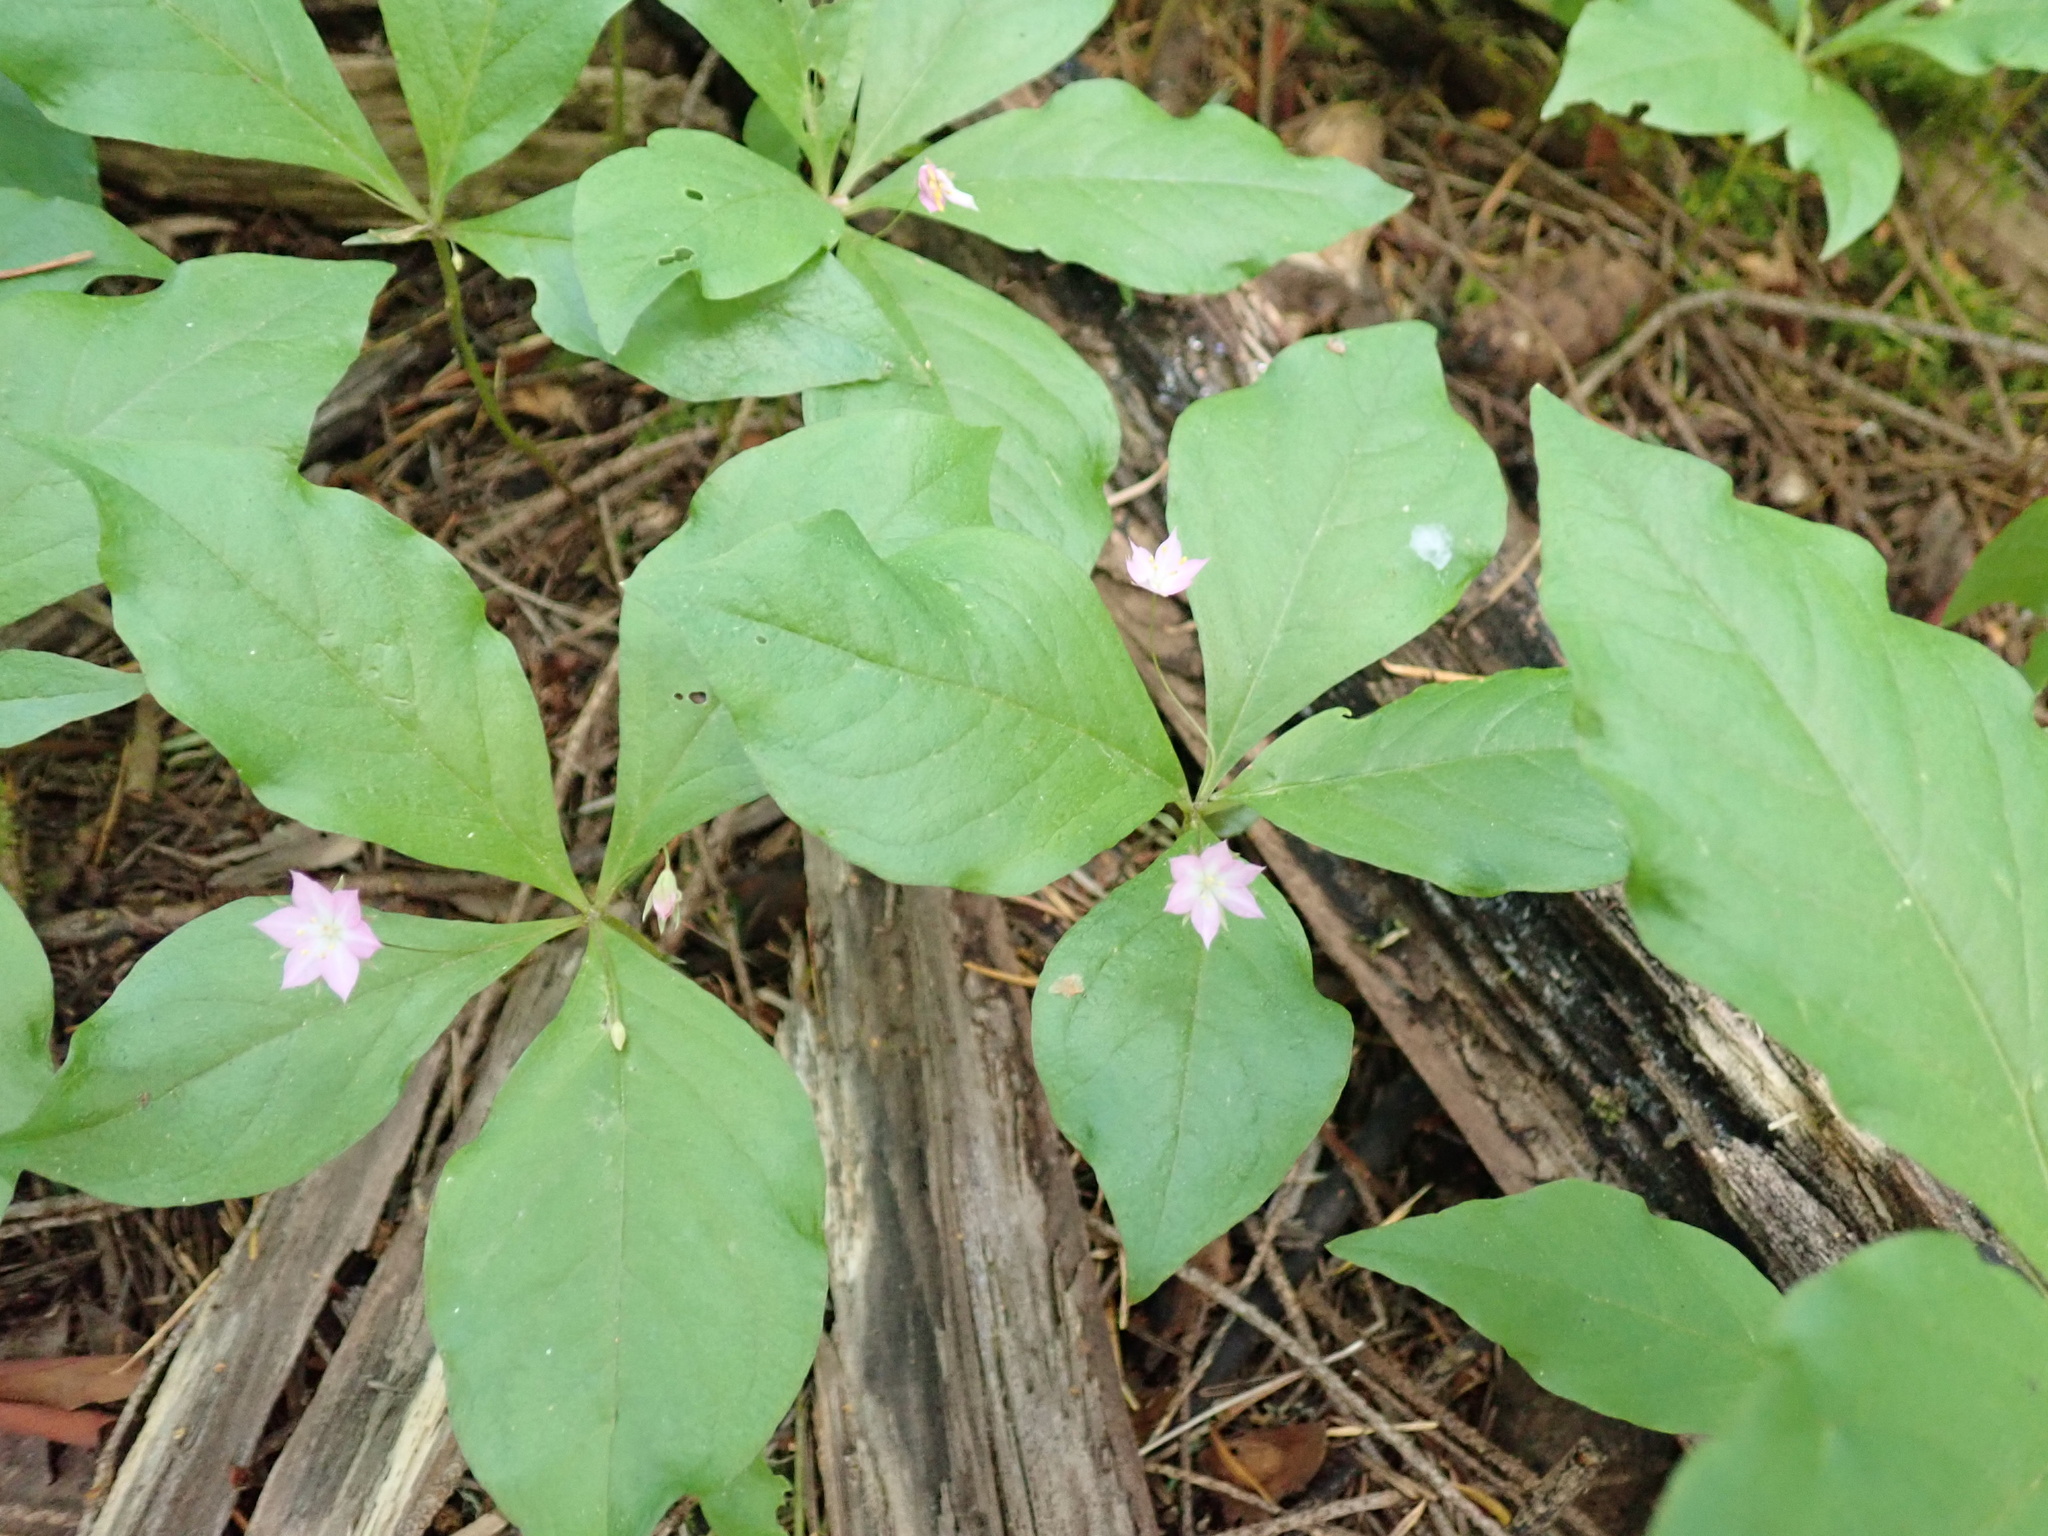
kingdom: Plantae
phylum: Tracheophyta
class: Magnoliopsida
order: Ericales
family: Primulaceae
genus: Lysimachia
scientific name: Lysimachia latifolia
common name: Pacific starflower
